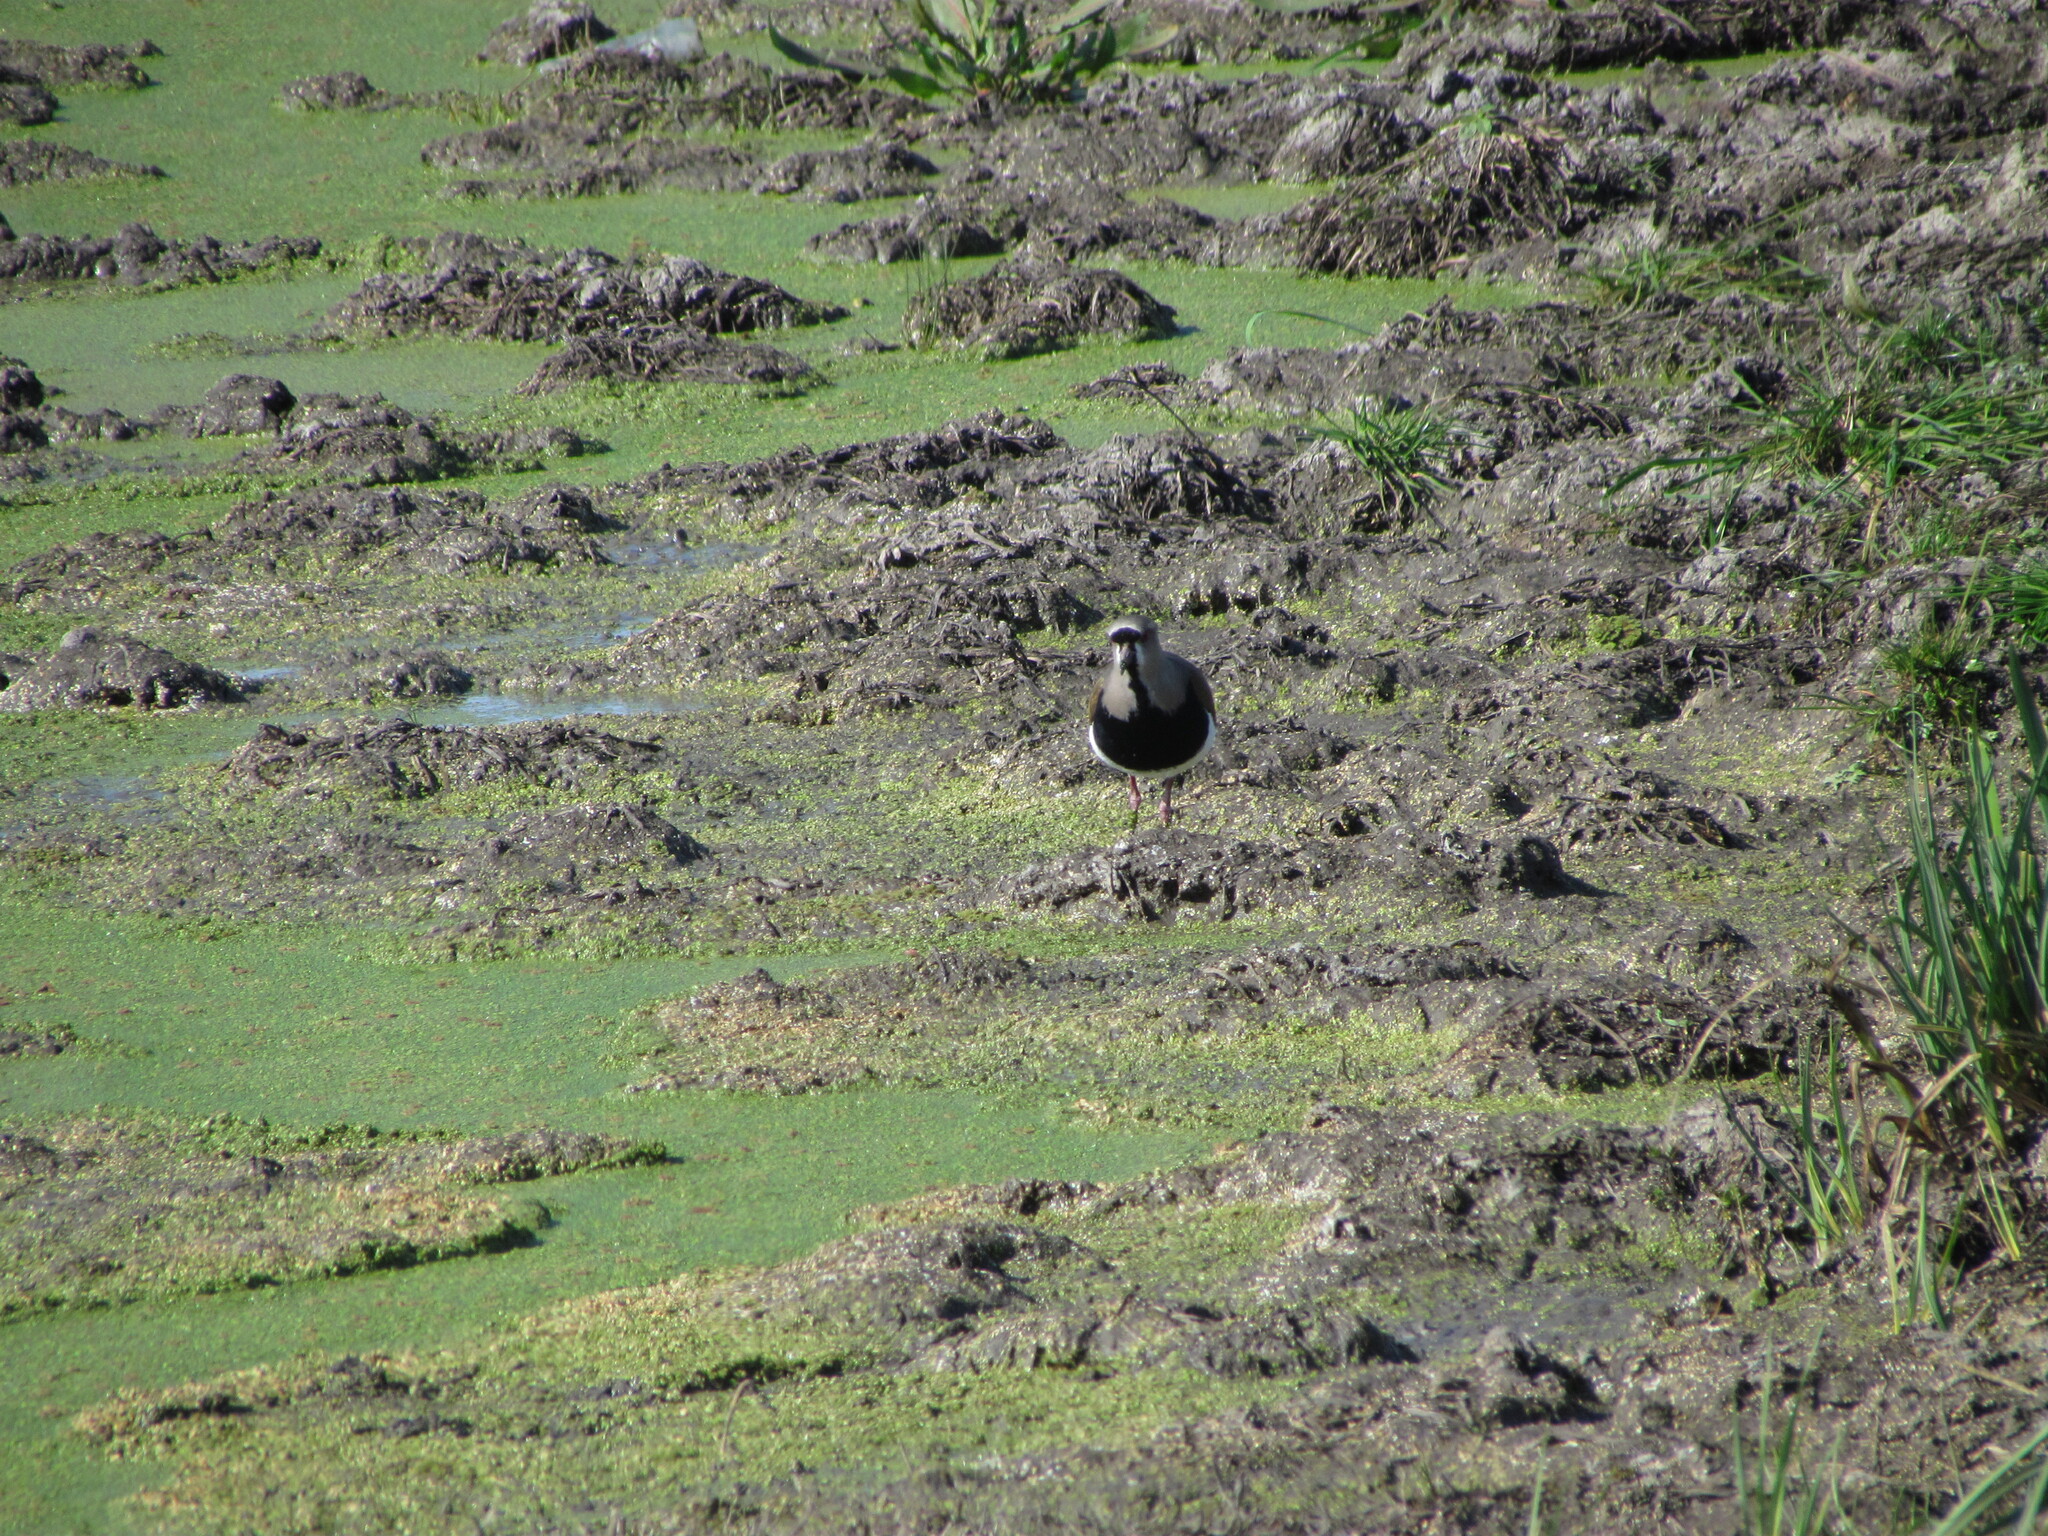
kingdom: Animalia
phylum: Chordata
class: Aves
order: Charadriiformes
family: Charadriidae
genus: Vanellus
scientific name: Vanellus chilensis
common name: Southern lapwing
